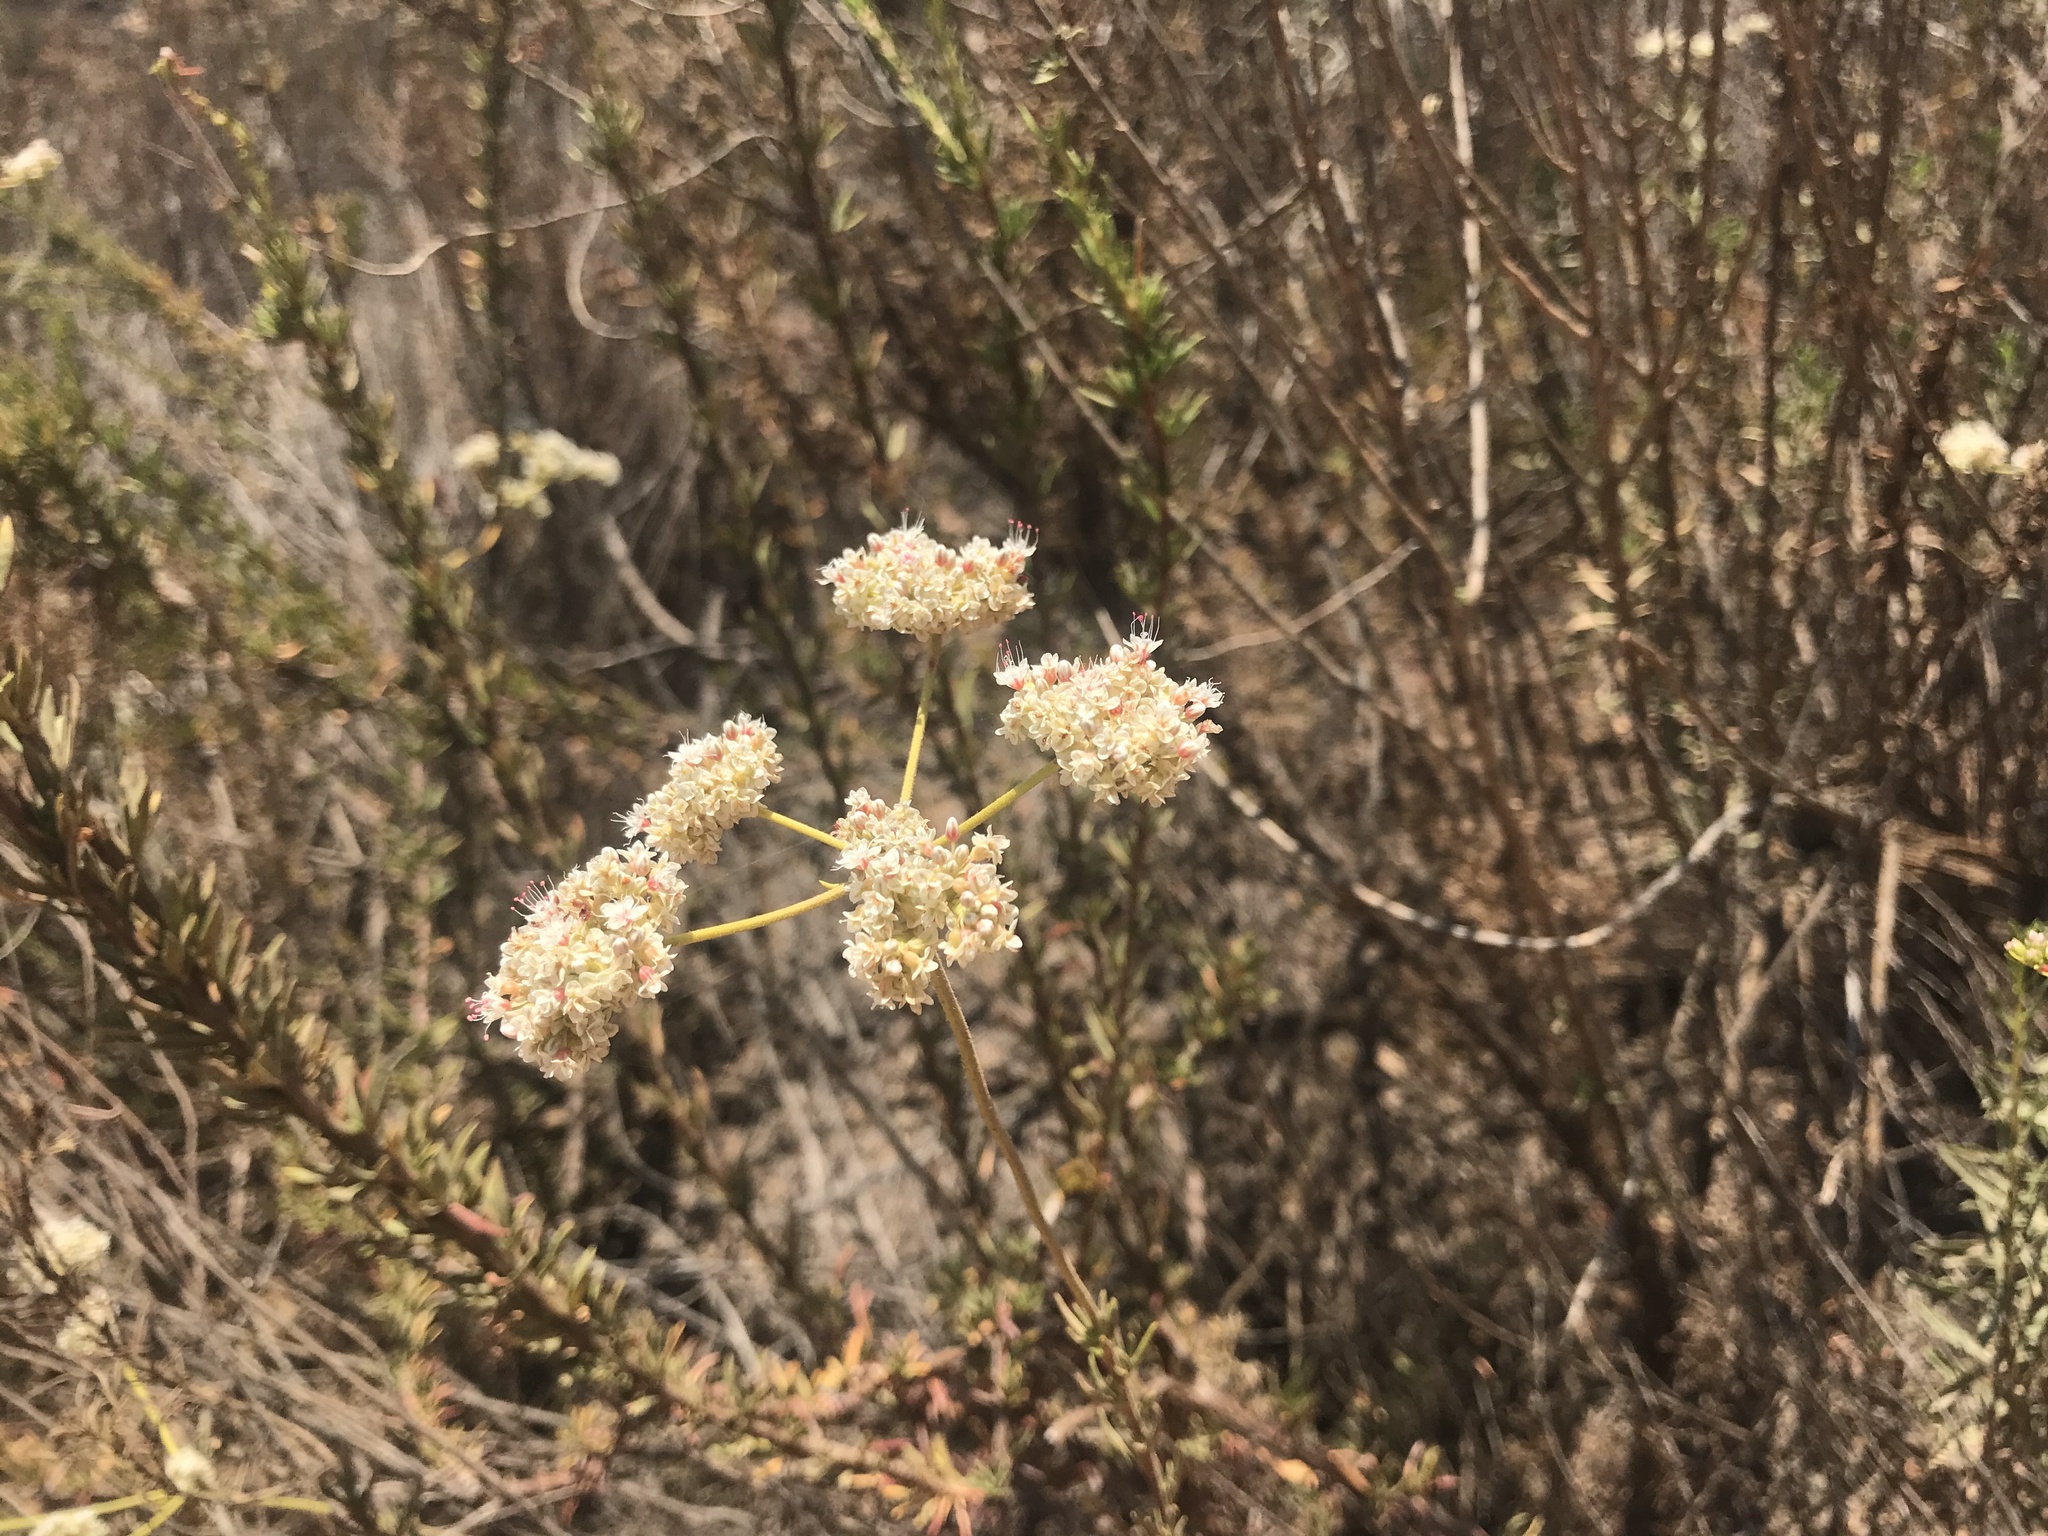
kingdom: Plantae
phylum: Tracheophyta
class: Magnoliopsida
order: Caryophyllales
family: Polygonaceae
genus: Eriogonum
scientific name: Eriogonum fasciculatum
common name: California wild buckwheat
